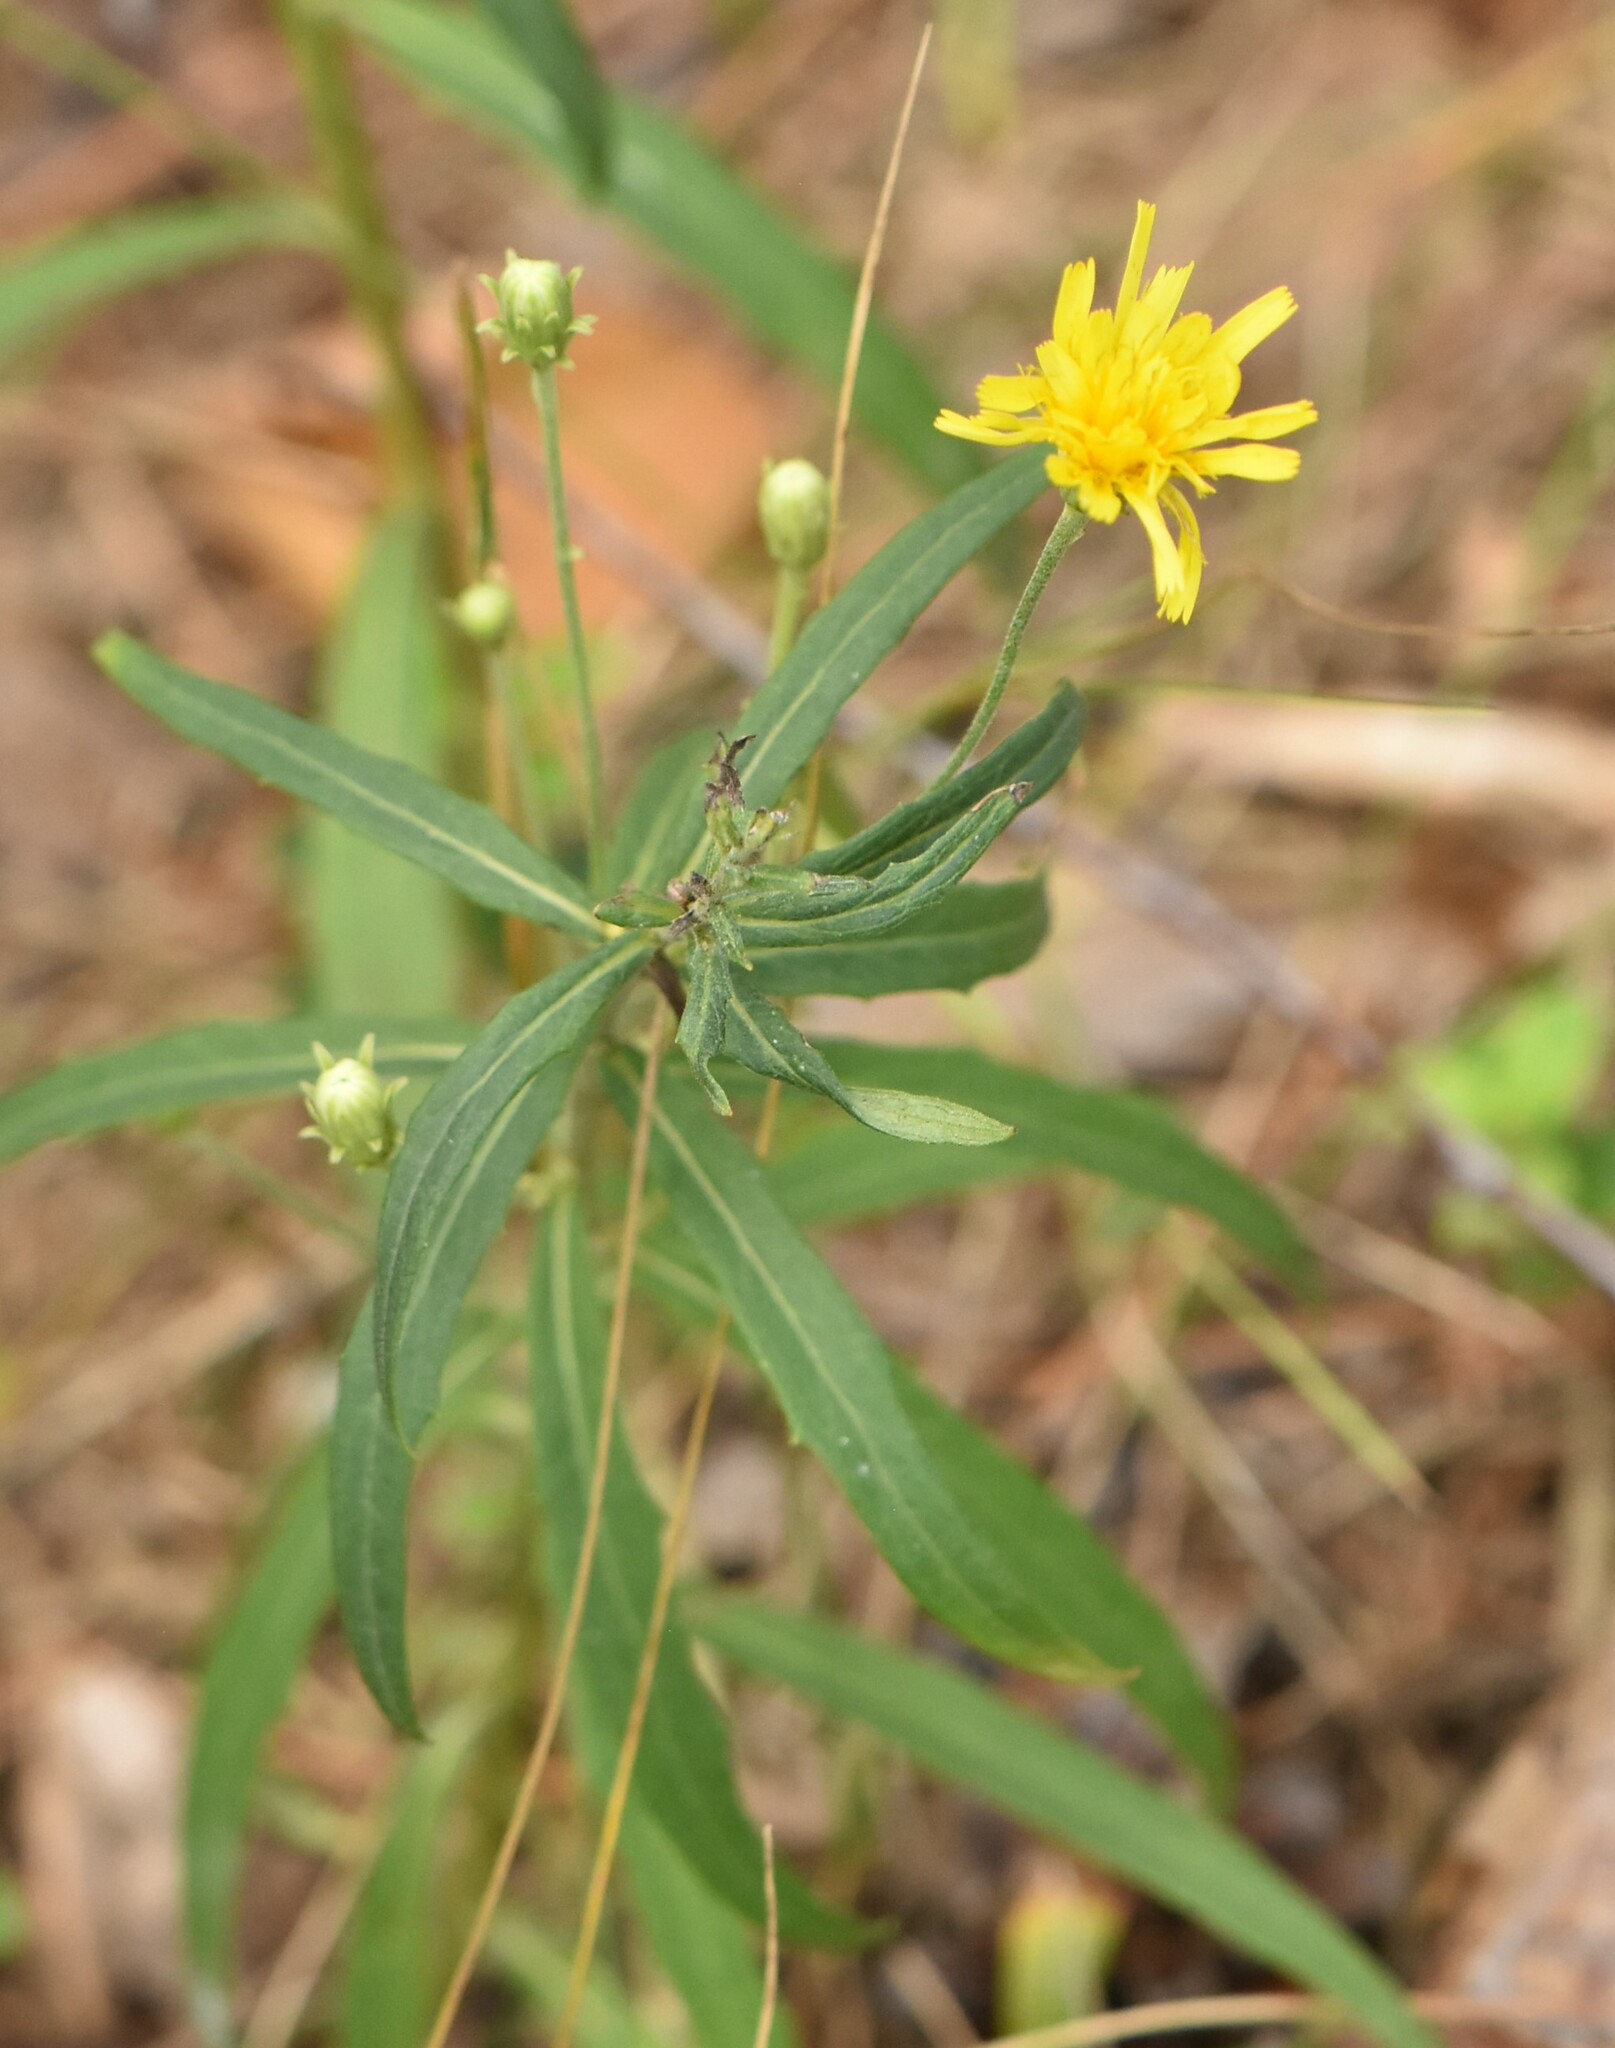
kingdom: Plantae
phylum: Tracheophyta
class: Magnoliopsida
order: Asterales
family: Asteraceae
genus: Hieracium
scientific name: Hieracium umbellatum
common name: Northern hawkweed
